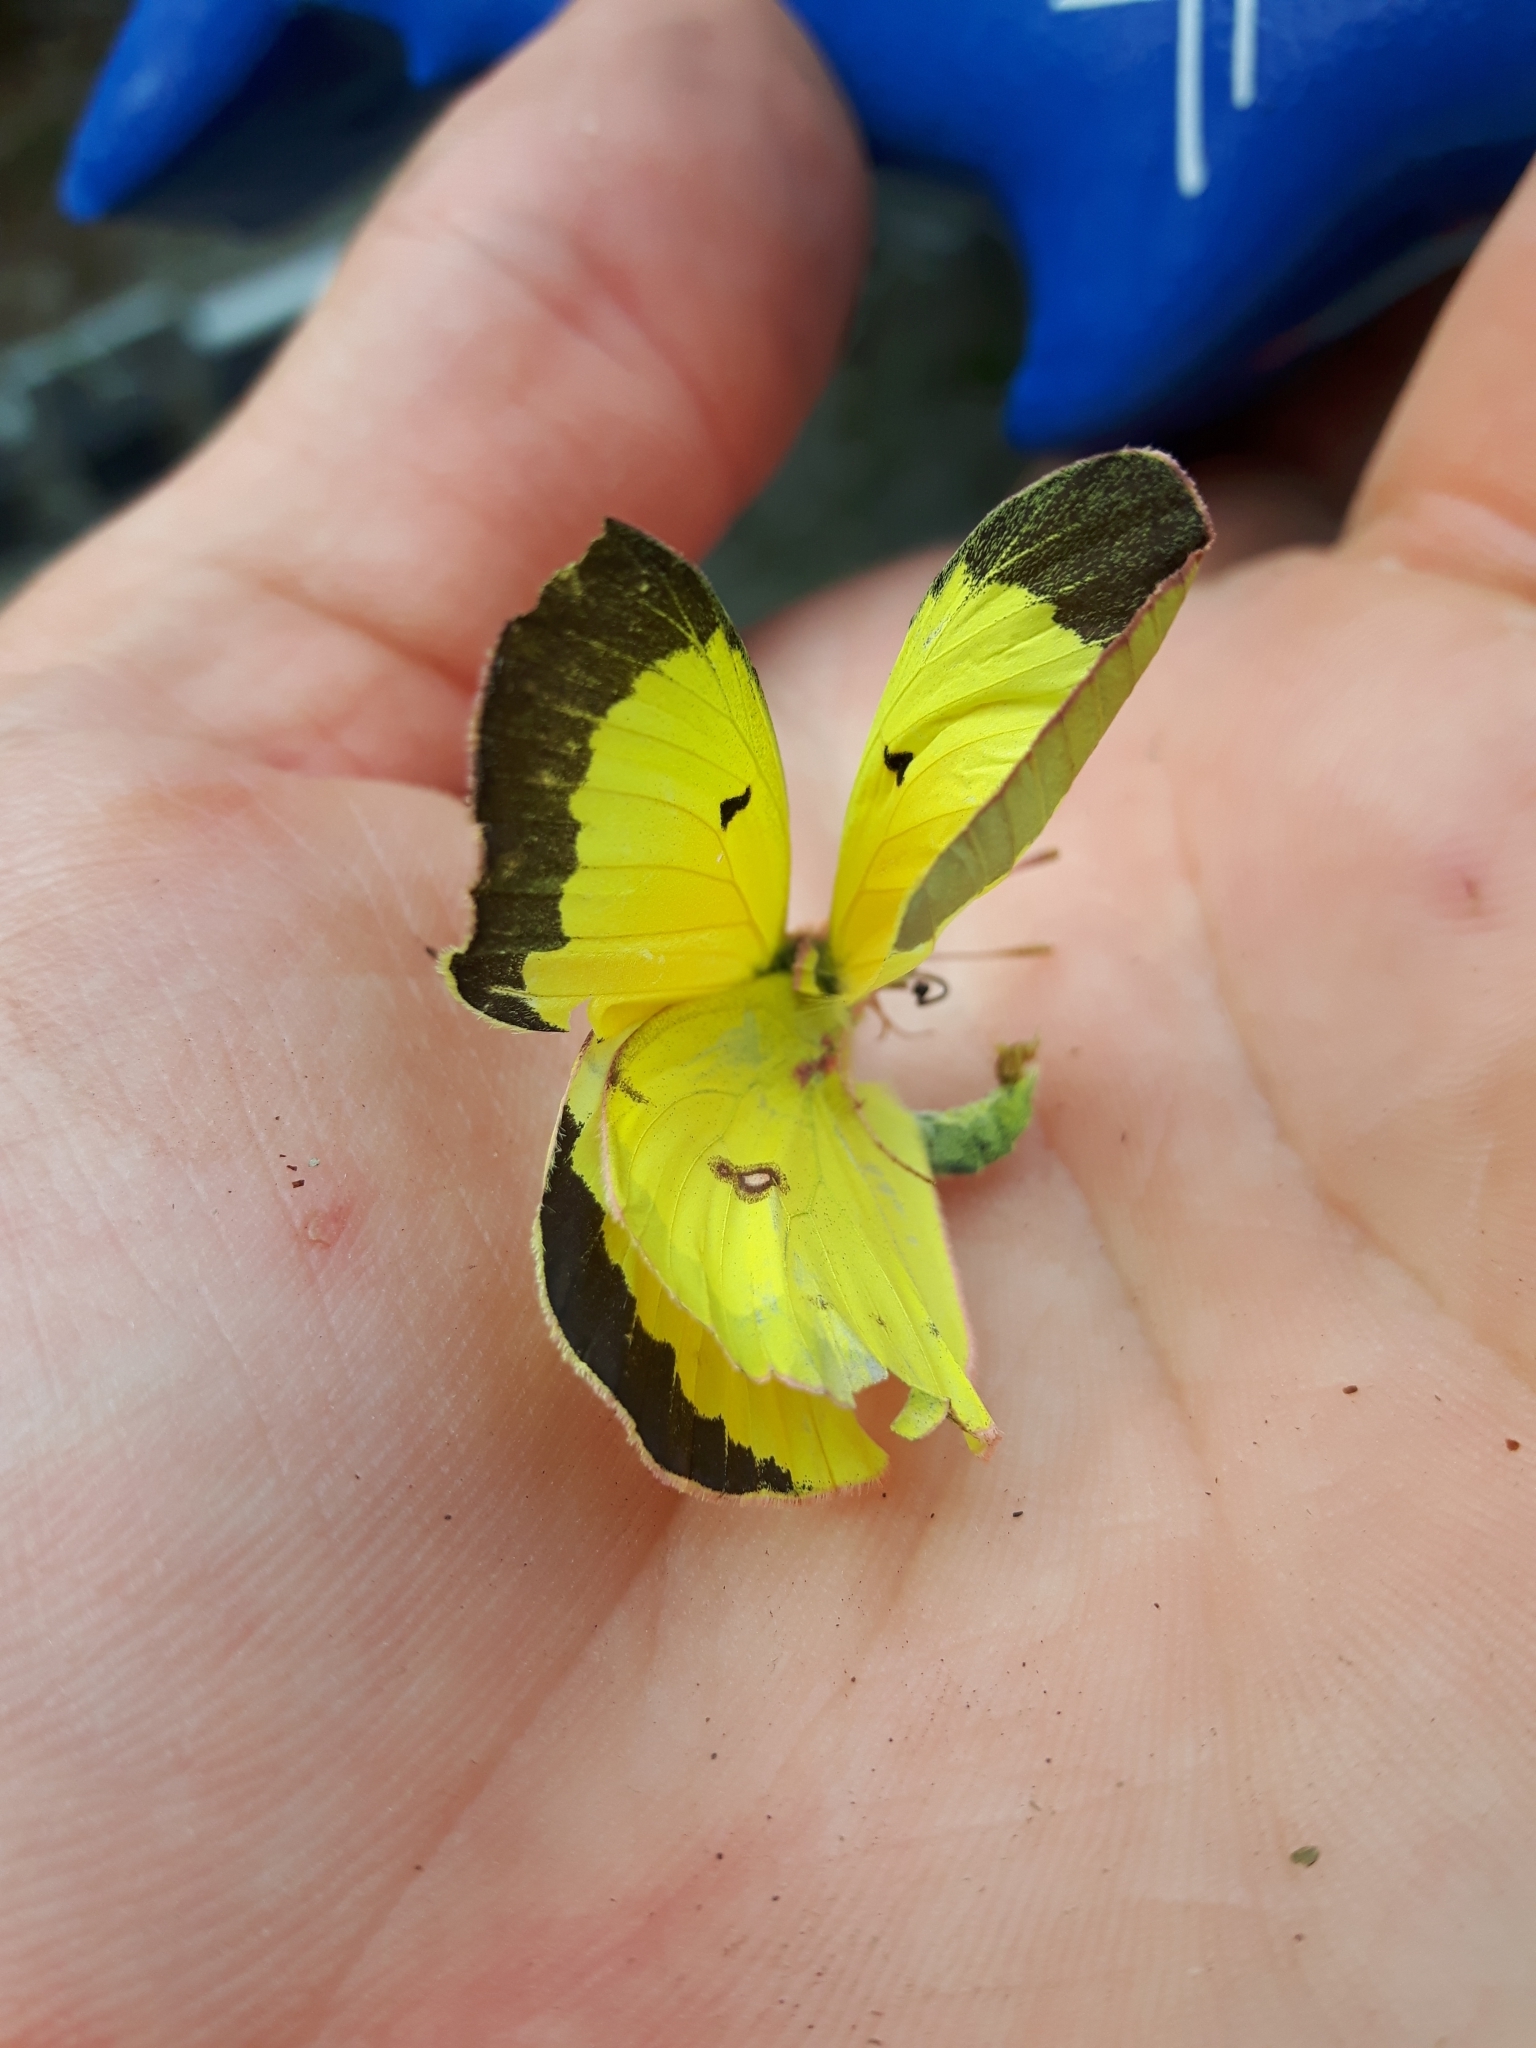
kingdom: Animalia
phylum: Arthropoda
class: Insecta
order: Lepidoptera
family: Pieridae
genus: Colias
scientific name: Colias philodice
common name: Clouded sulphur
